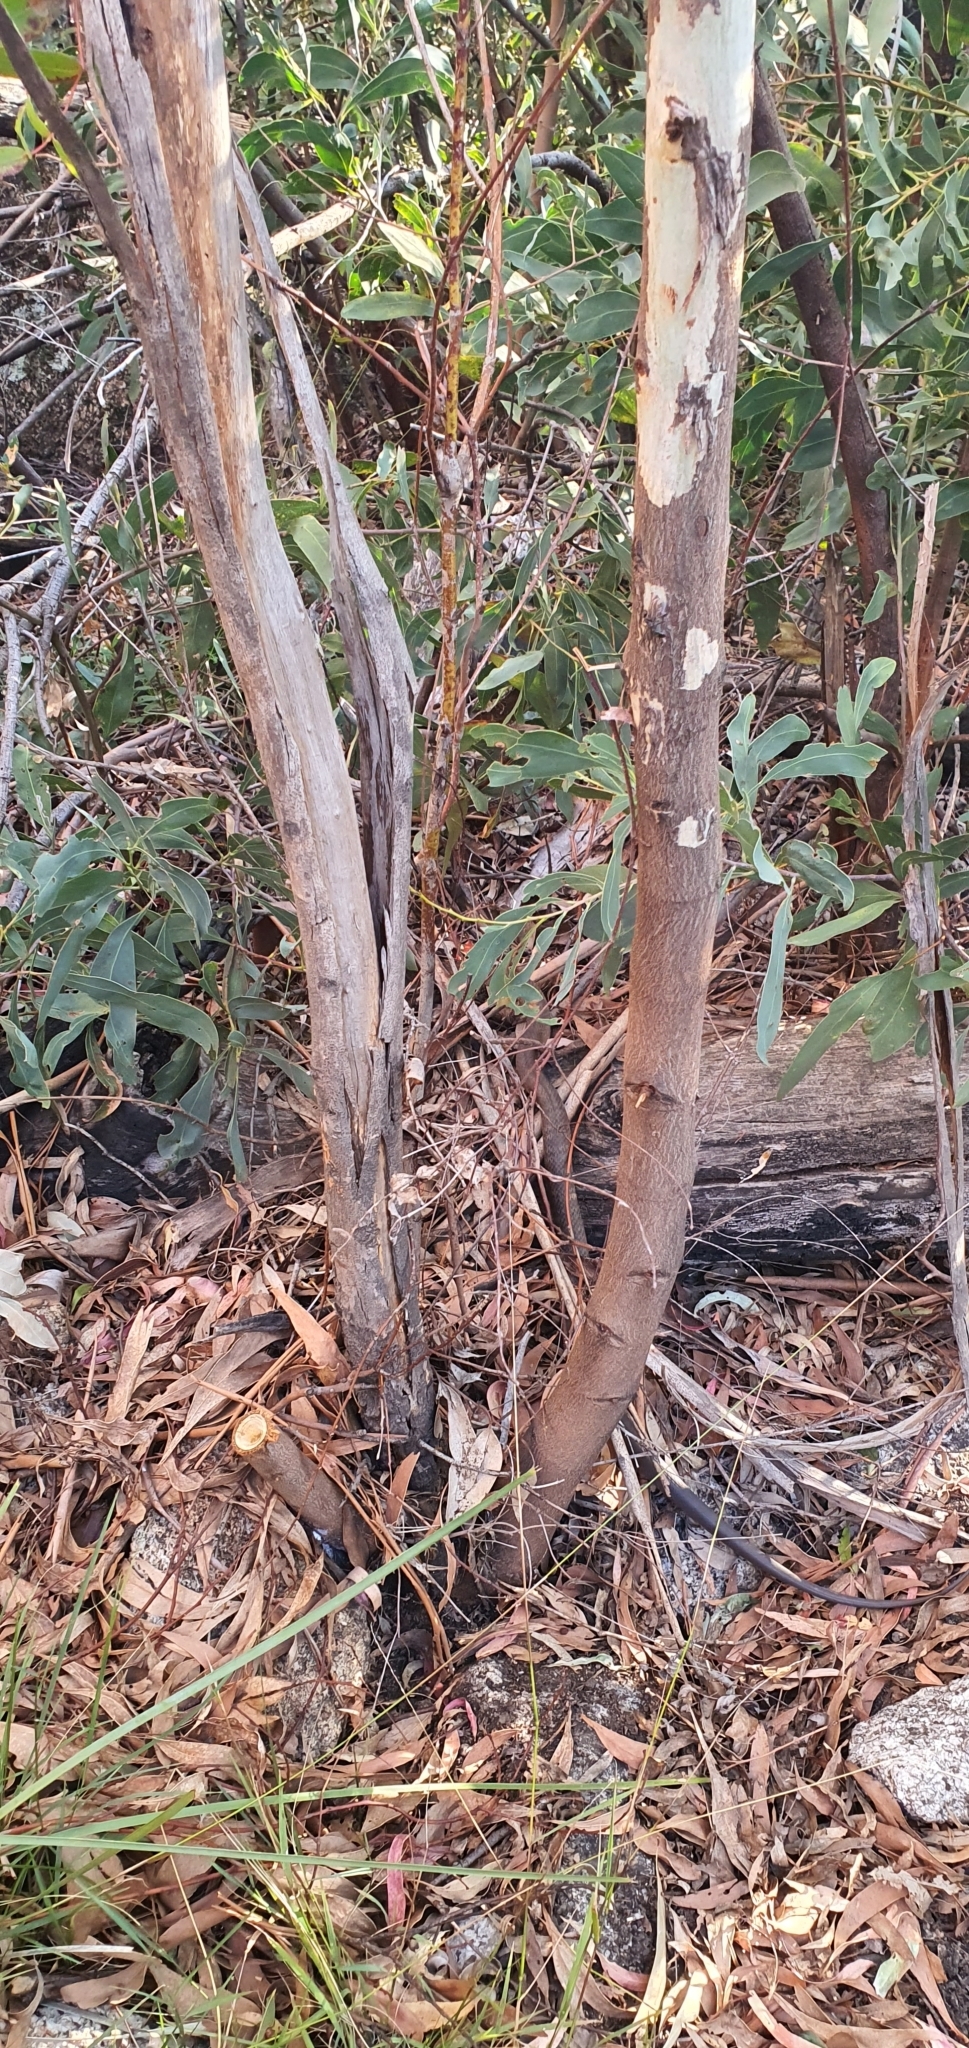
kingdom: Animalia
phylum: Chordata
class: Squamata
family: Elapidae
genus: Pseudonaja
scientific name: Pseudonaja textilis
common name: Eastern brown snake
